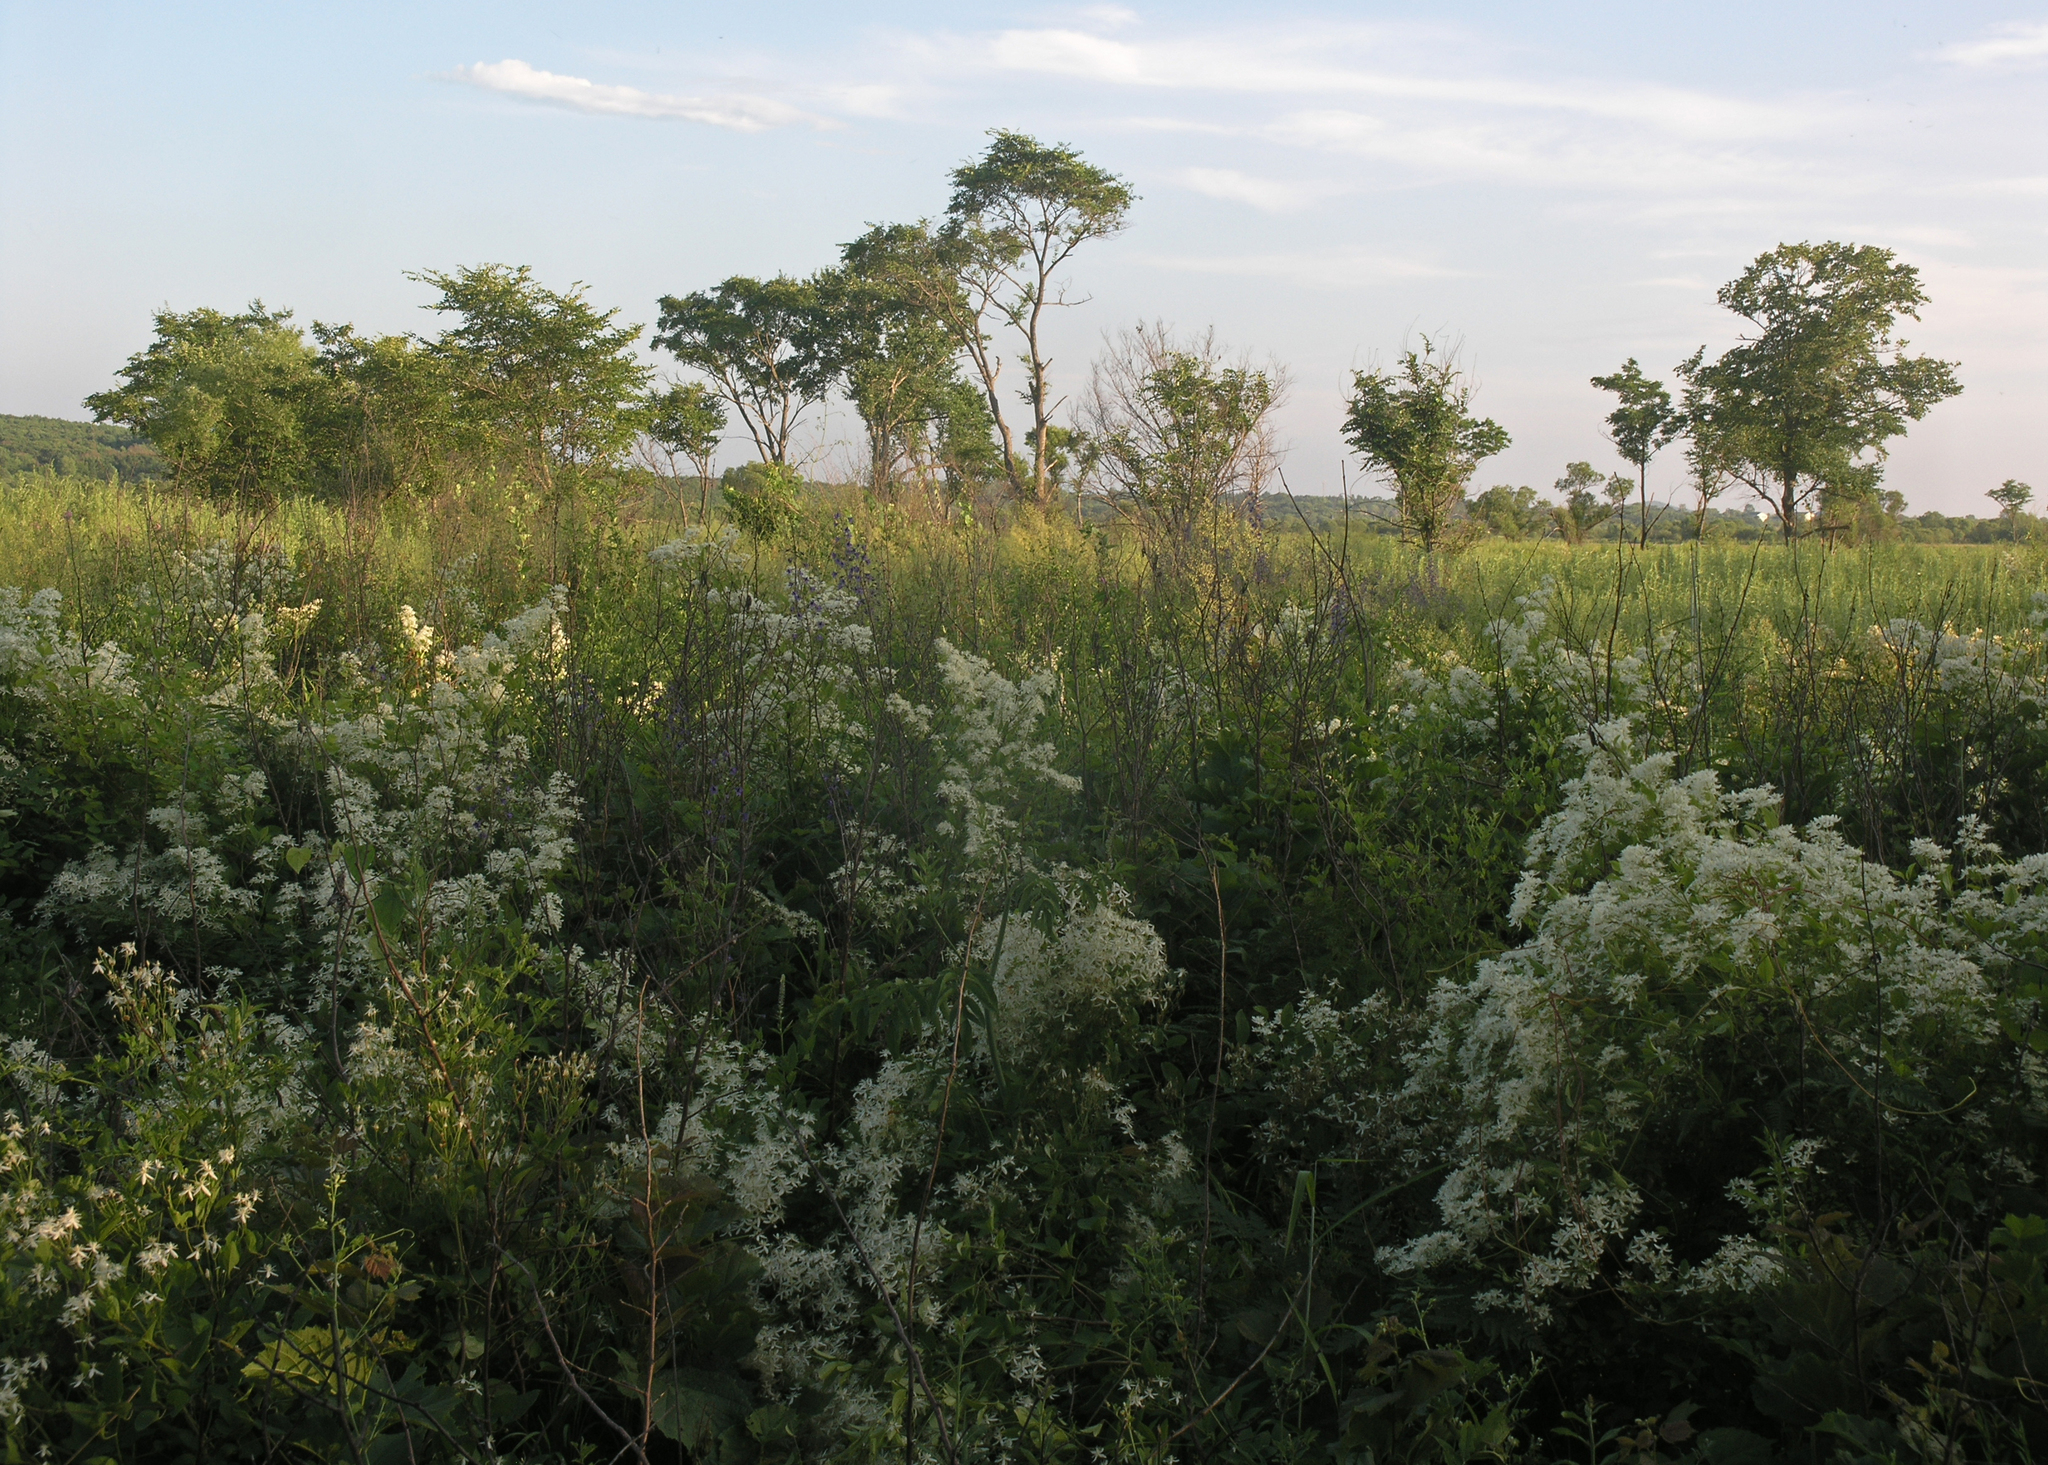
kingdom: Plantae
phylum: Tracheophyta
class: Magnoliopsida
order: Ranunculales
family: Ranunculaceae
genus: Clematis
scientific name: Clematis terniflora
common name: Sweet autumn clematis
